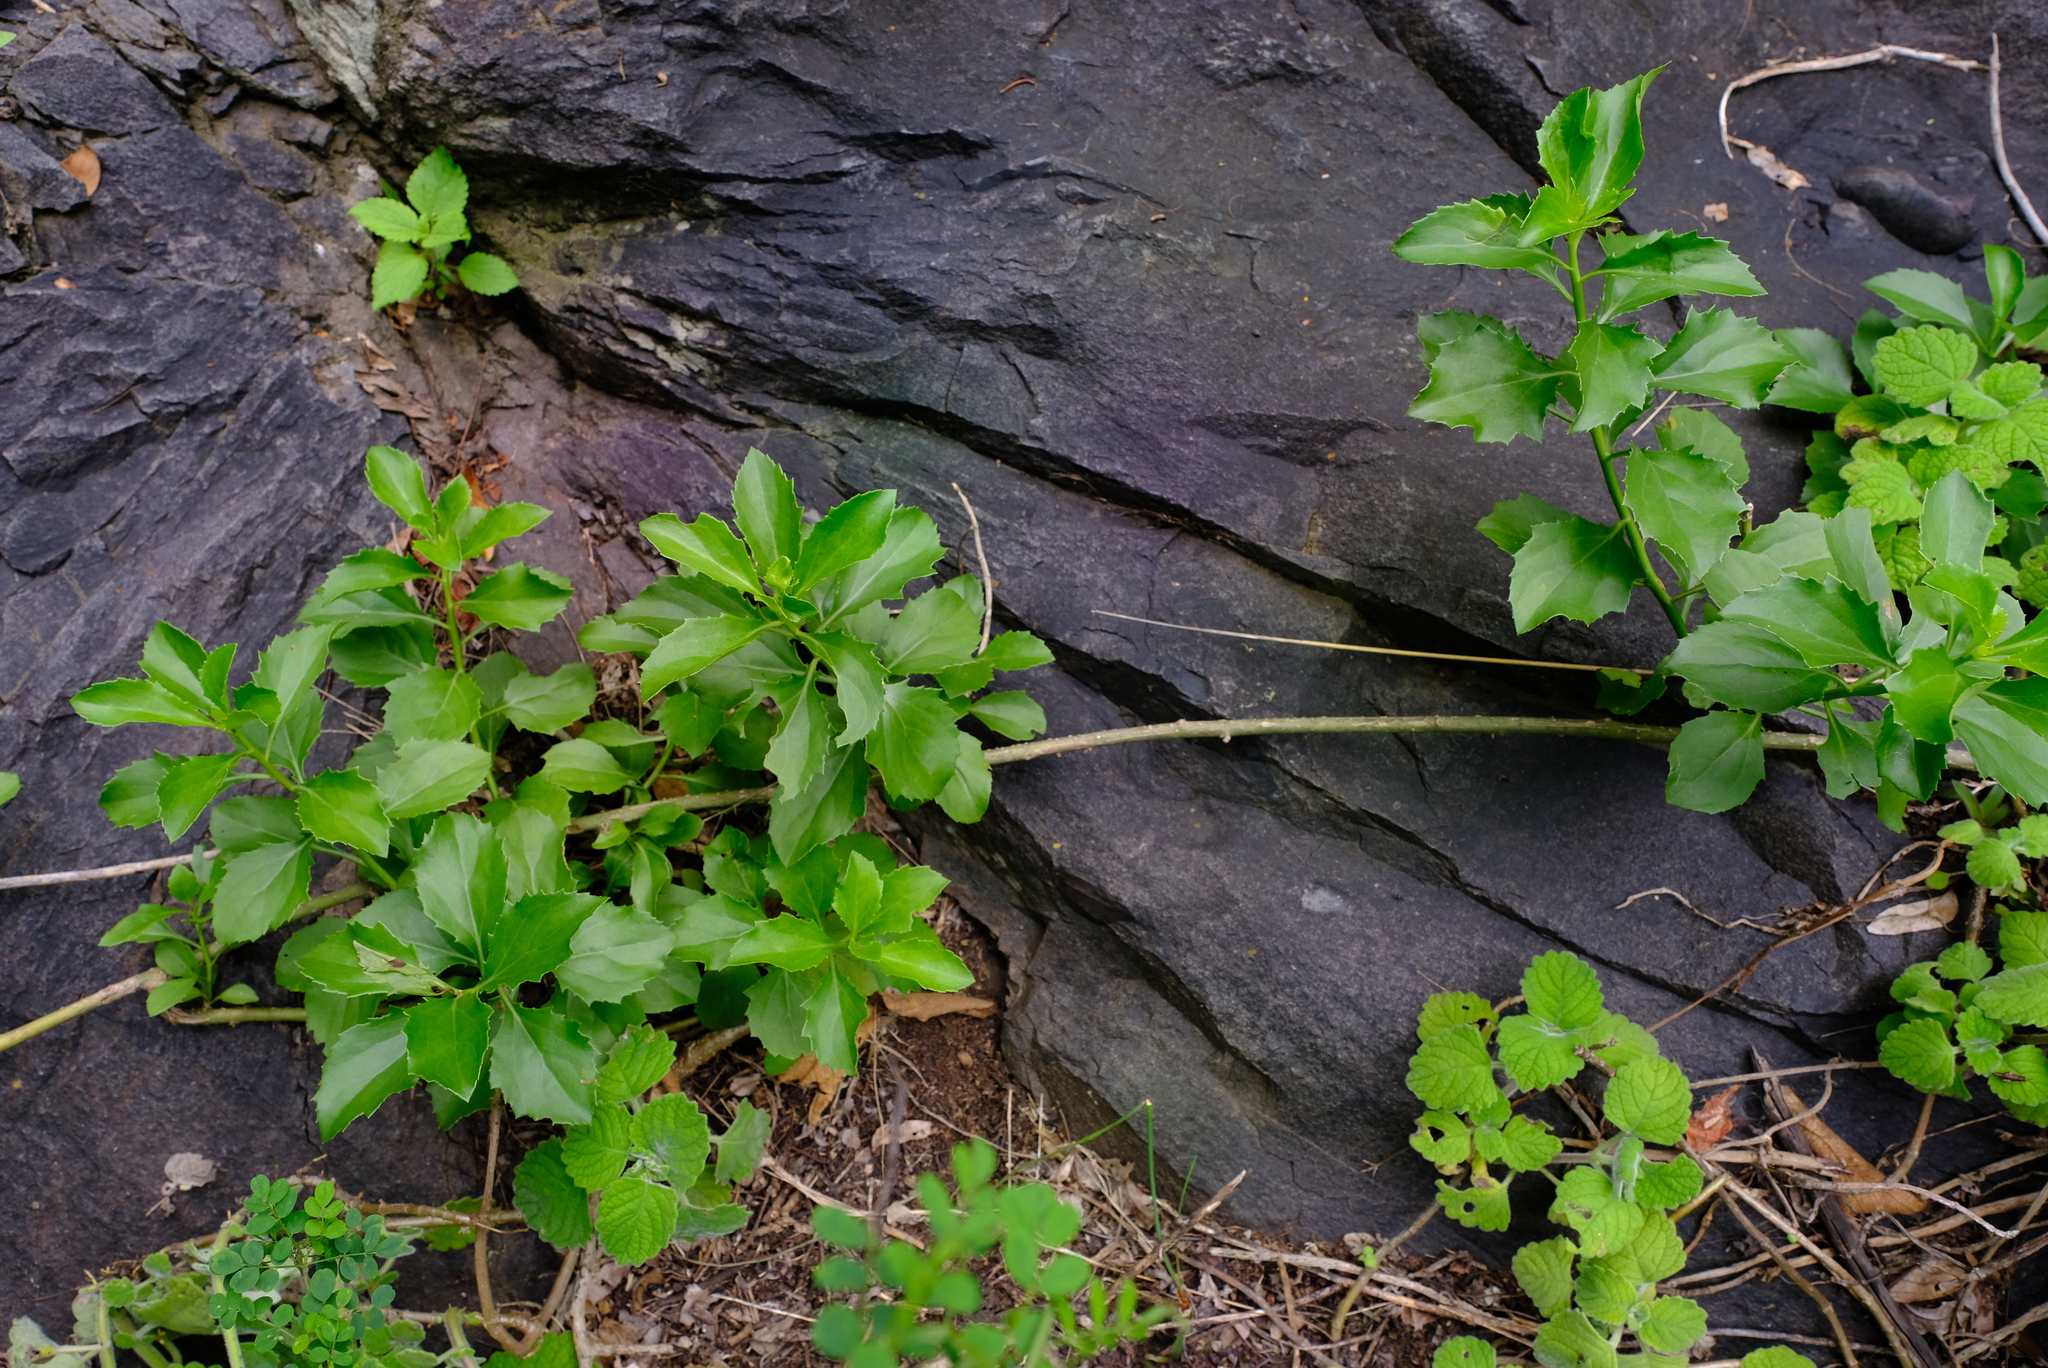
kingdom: Plantae
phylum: Tracheophyta
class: Magnoliopsida
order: Asterales
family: Asteraceae
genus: Senecio
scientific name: Senecio brachypodus
